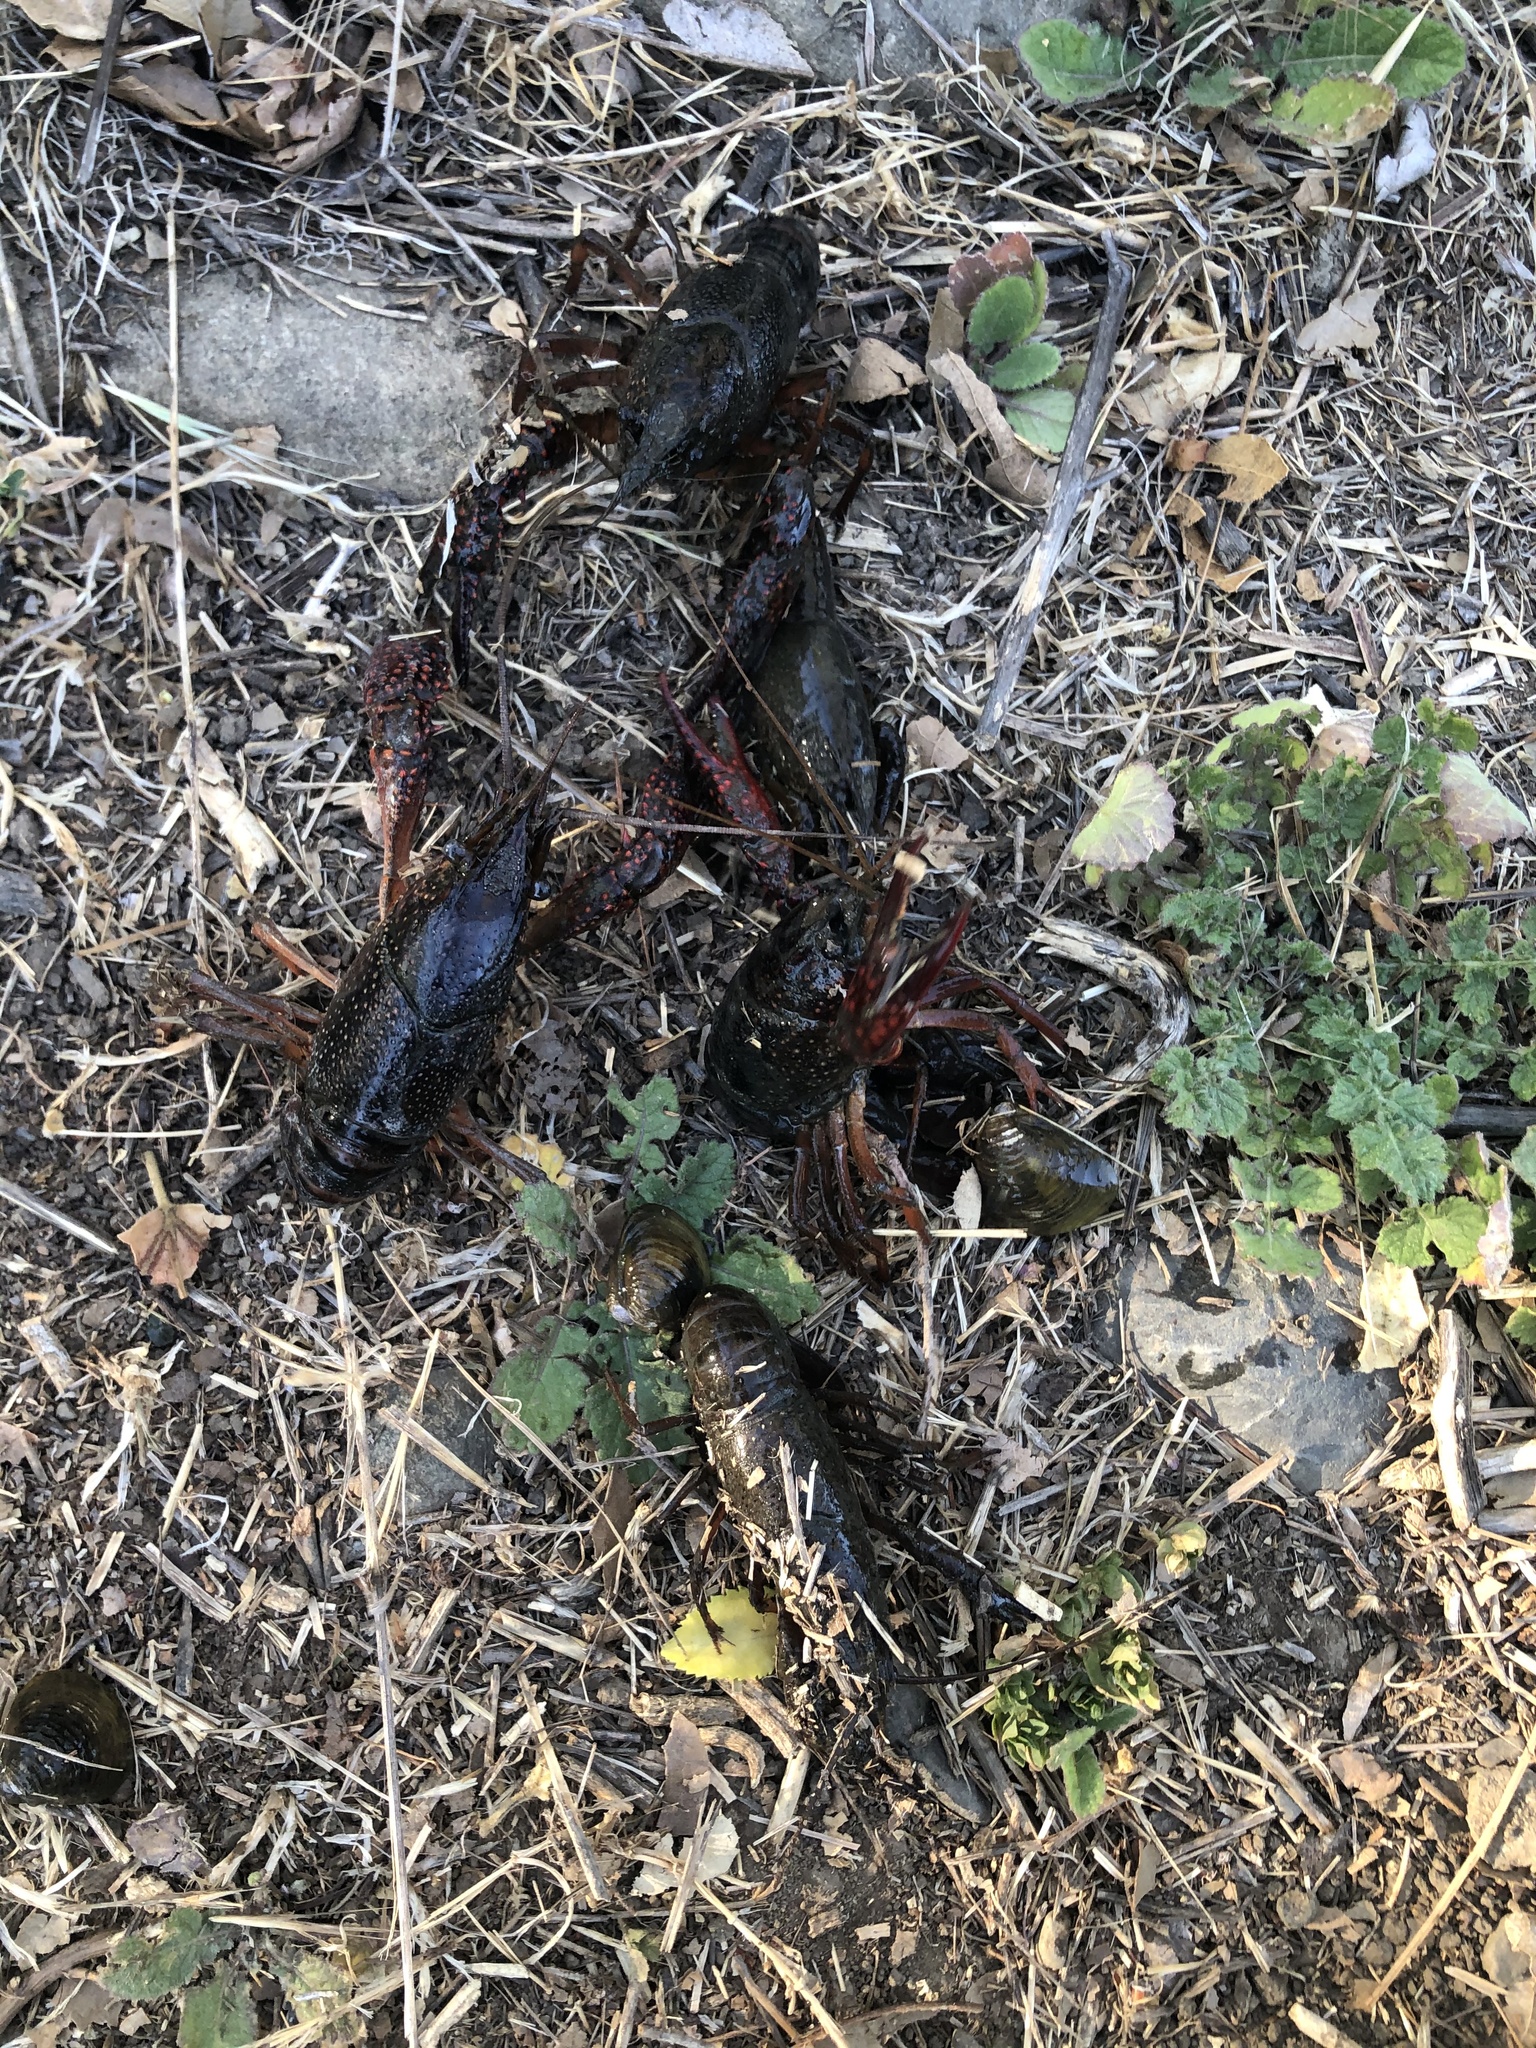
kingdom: Animalia
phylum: Arthropoda
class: Malacostraca
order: Decapoda
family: Cambaridae
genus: Procambarus
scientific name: Procambarus clarkii
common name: Red swamp crayfish
